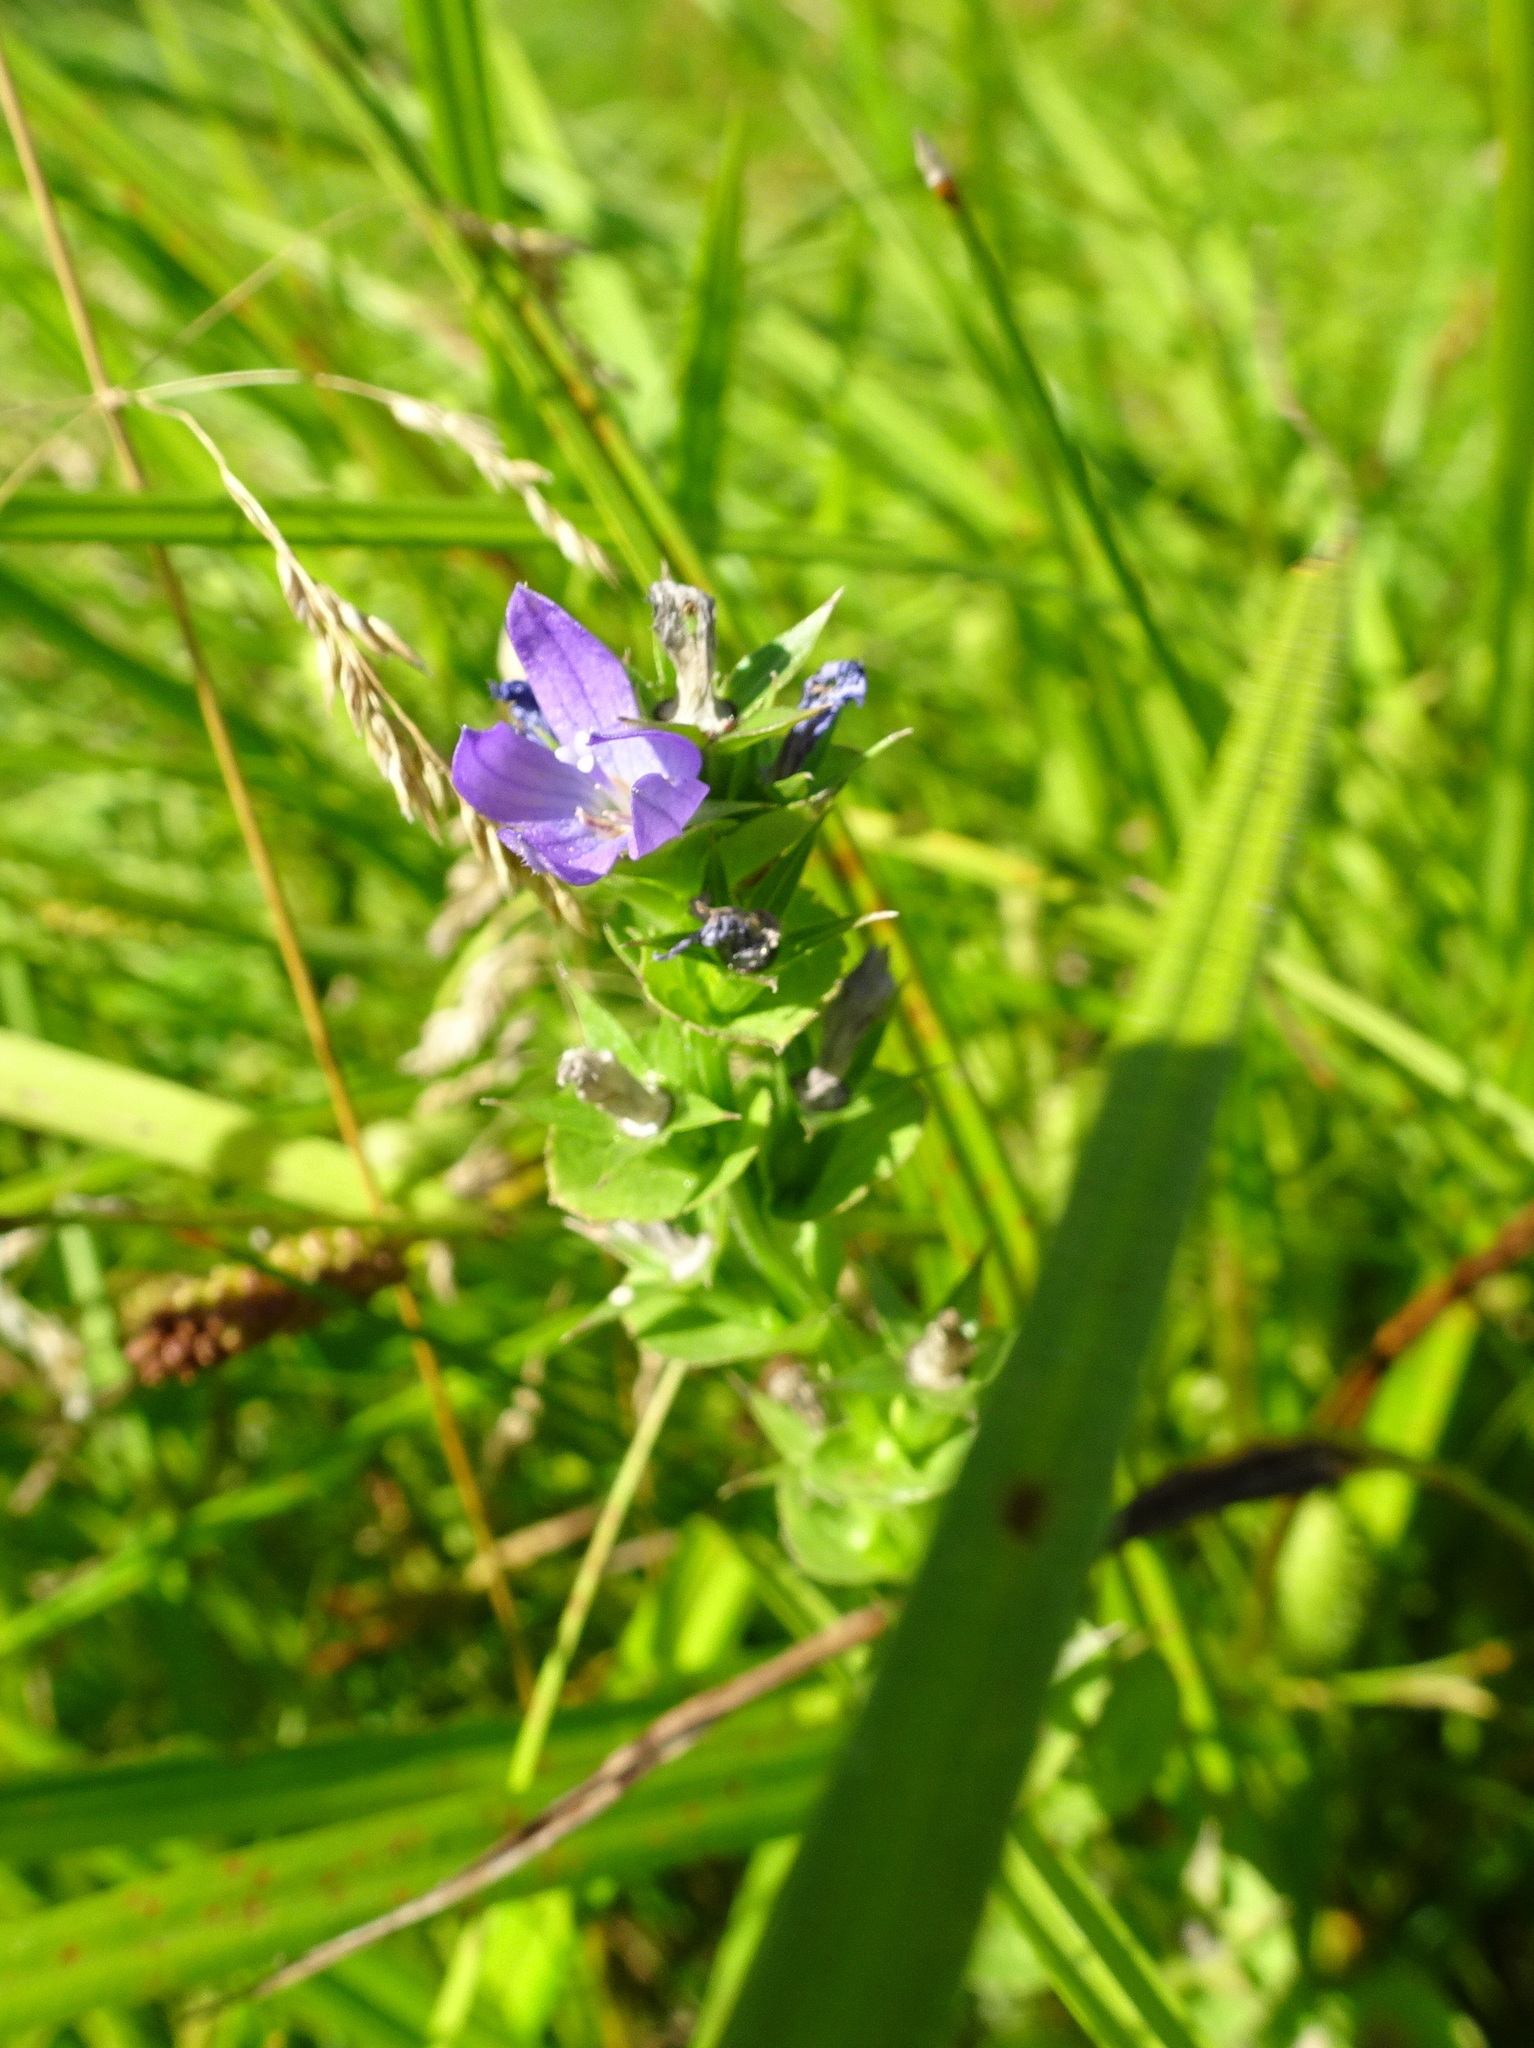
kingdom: Plantae
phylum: Tracheophyta
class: Magnoliopsida
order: Asterales
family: Campanulaceae
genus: Triodanis
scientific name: Triodanis perfoliata
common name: Clasping venus' looking-glass
